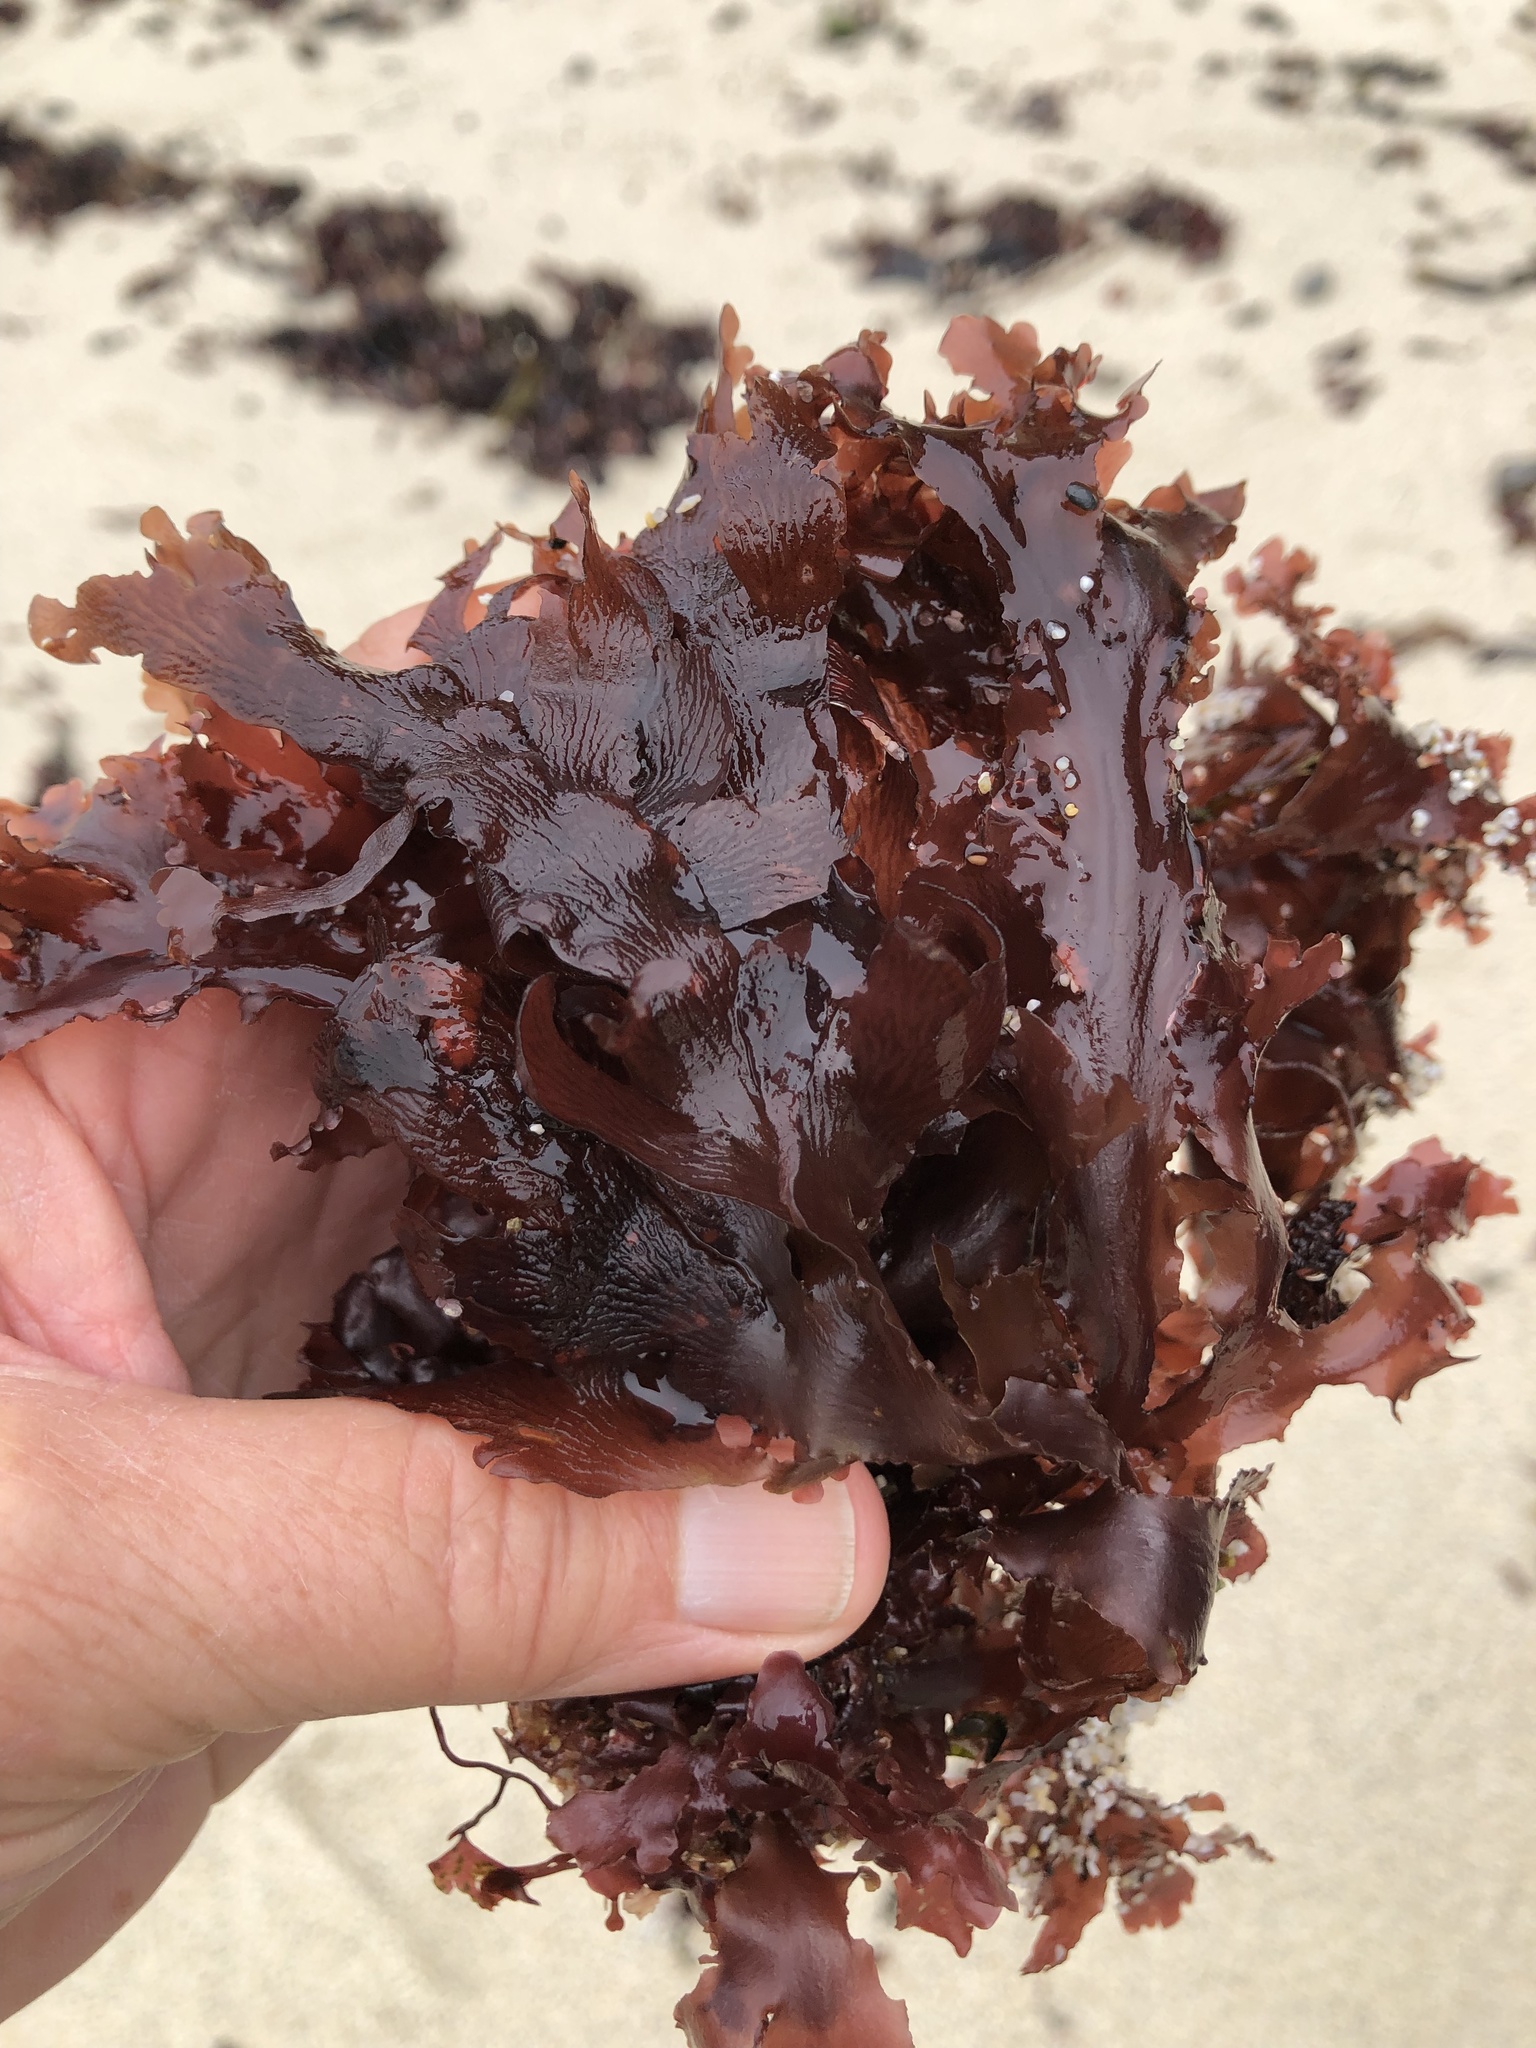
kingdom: Plantae
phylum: Rhodophyta
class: Florideophyceae
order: Ceramiales
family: Delesseriaceae
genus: Hymenena
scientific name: Hymenena flabelligera
